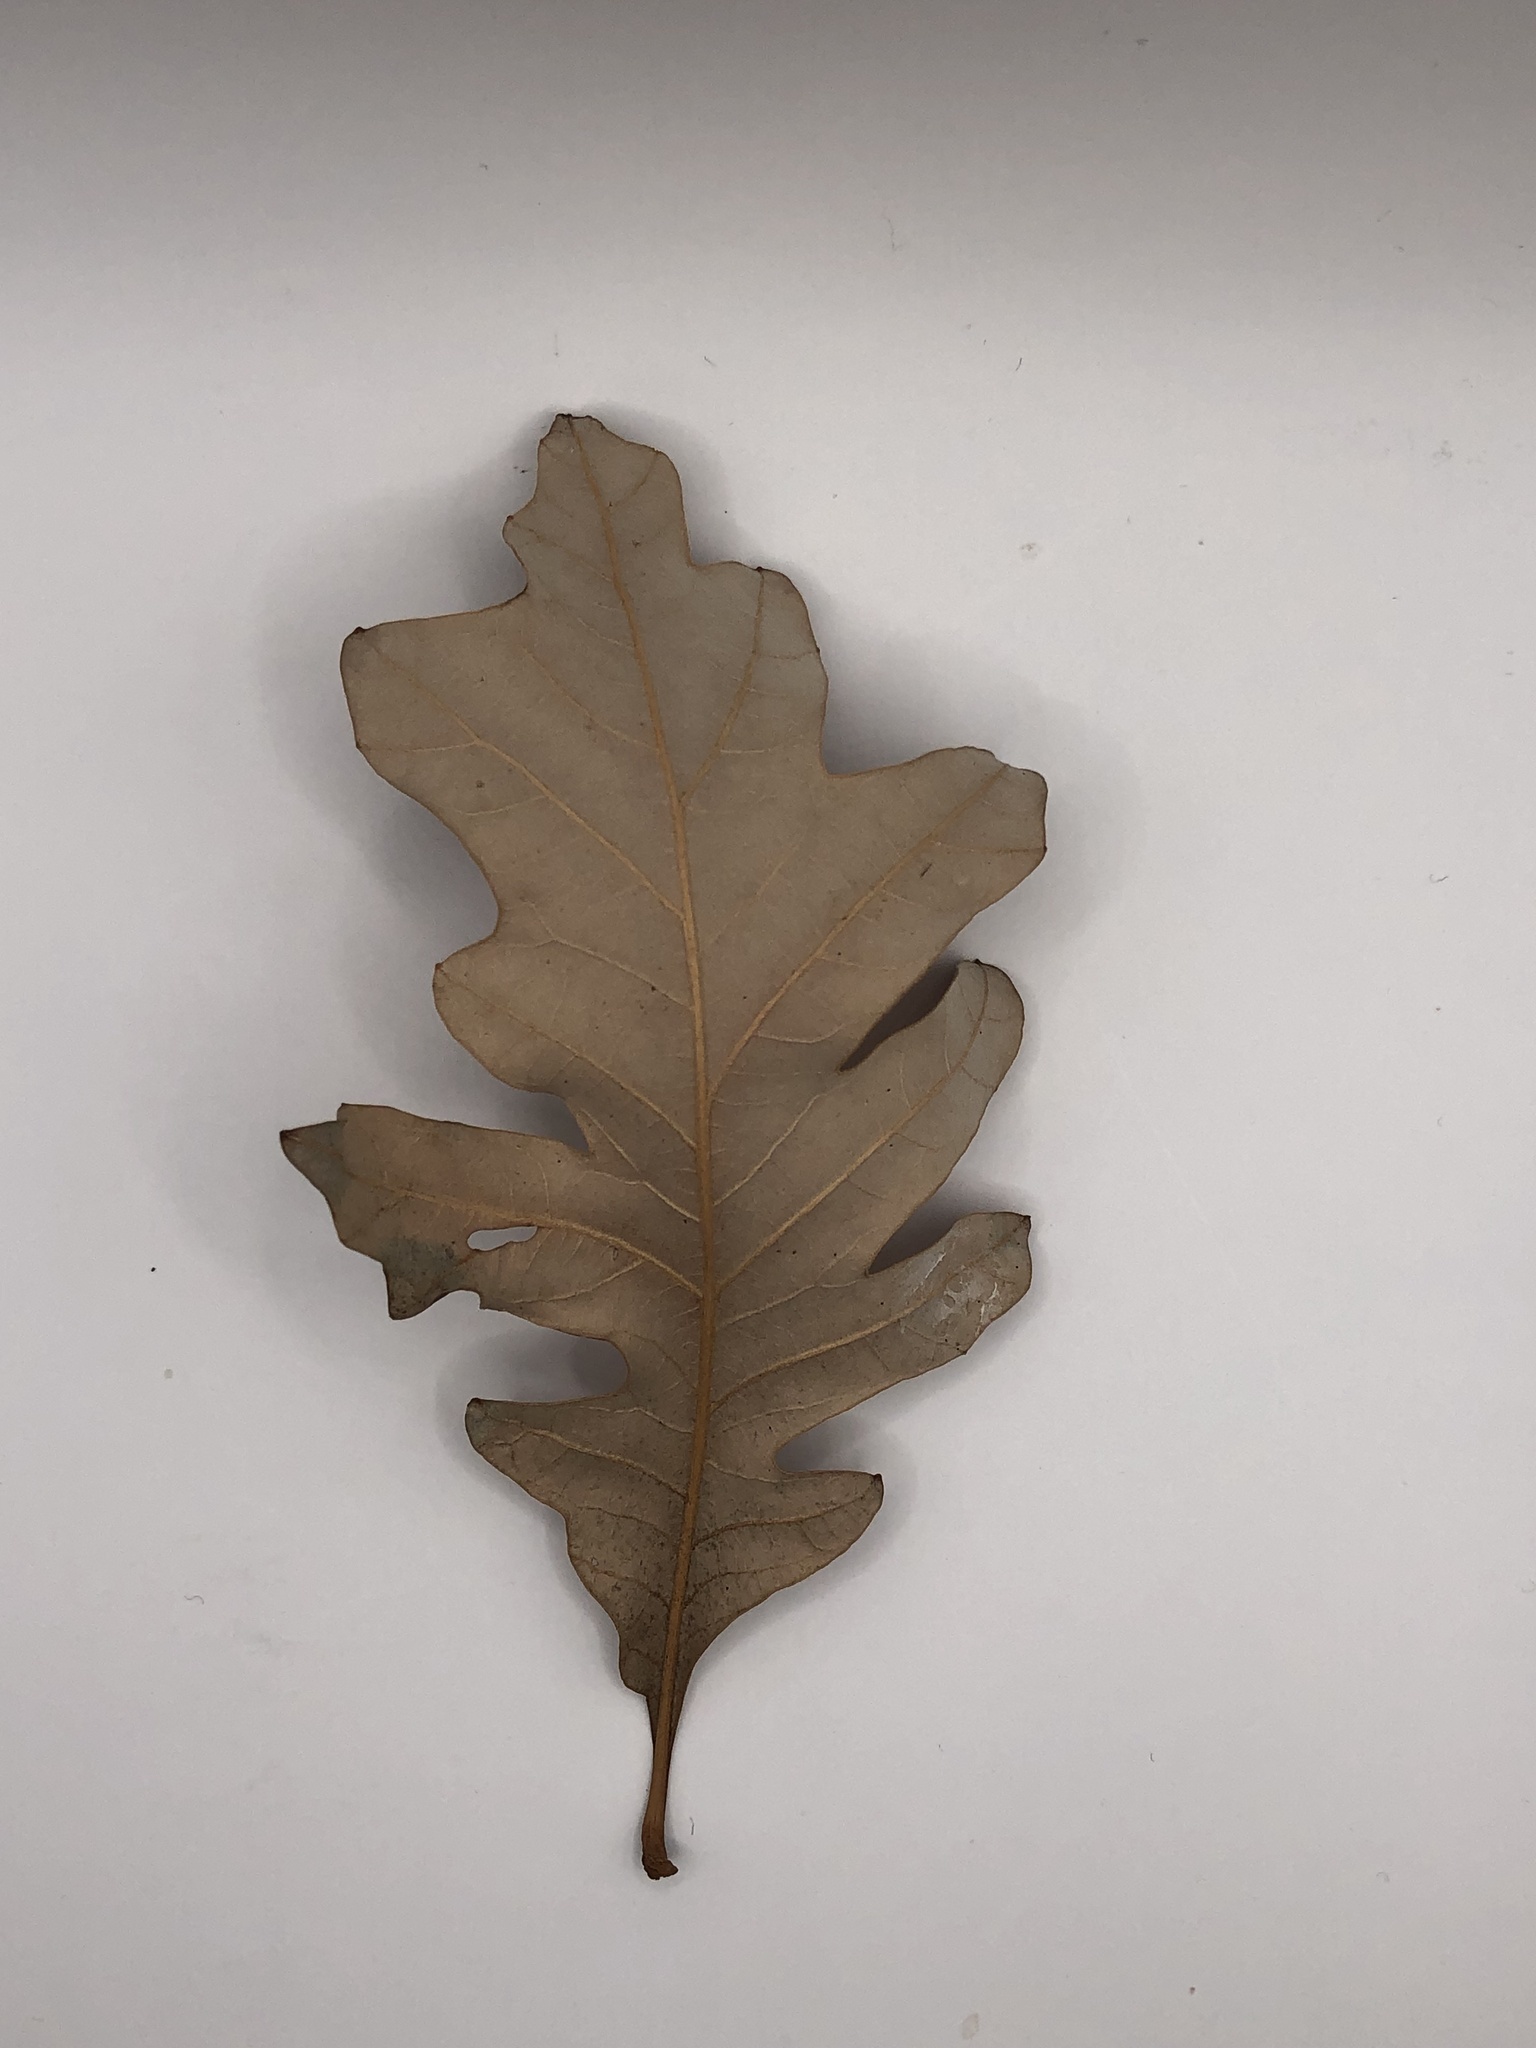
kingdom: Plantae
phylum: Tracheophyta
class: Magnoliopsida
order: Fagales
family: Fagaceae
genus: Quercus
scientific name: Quercus alba
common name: White oak
